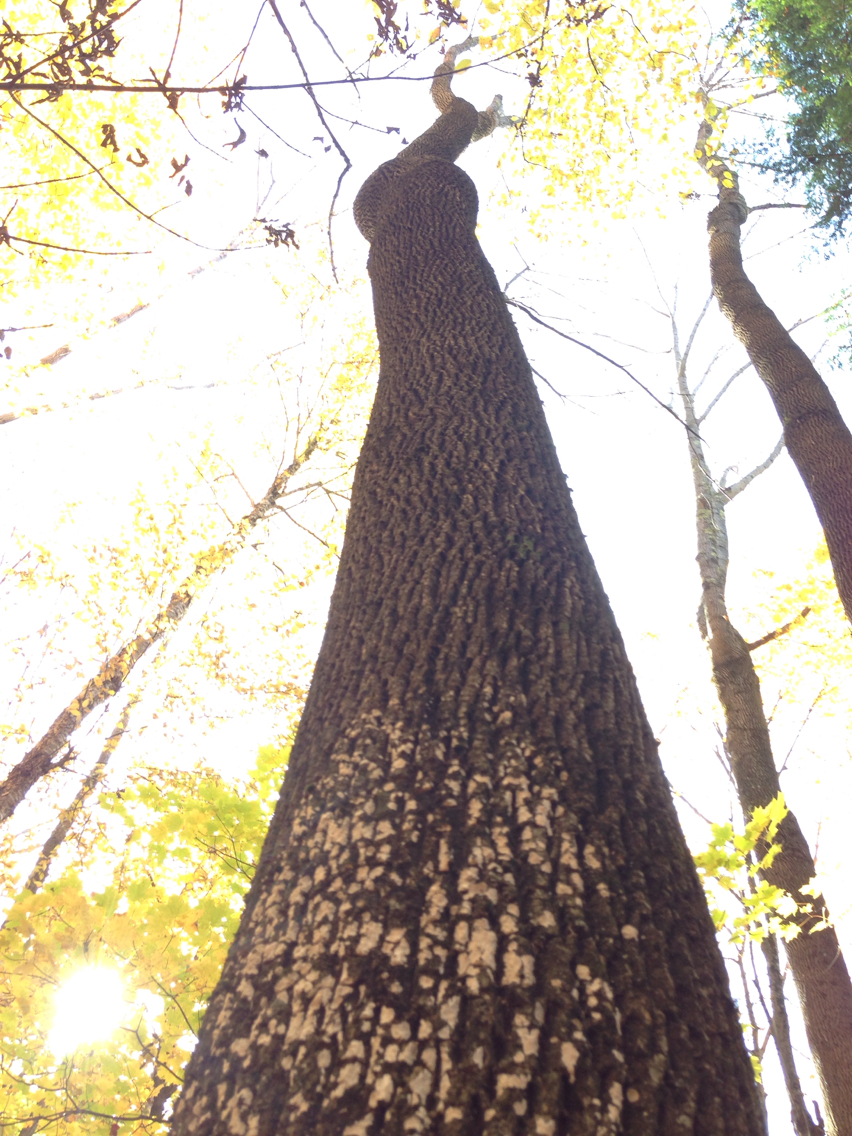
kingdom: Plantae
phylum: Tracheophyta
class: Magnoliopsida
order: Lamiales
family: Oleaceae
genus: Fraxinus
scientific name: Fraxinus americana
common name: White ash
